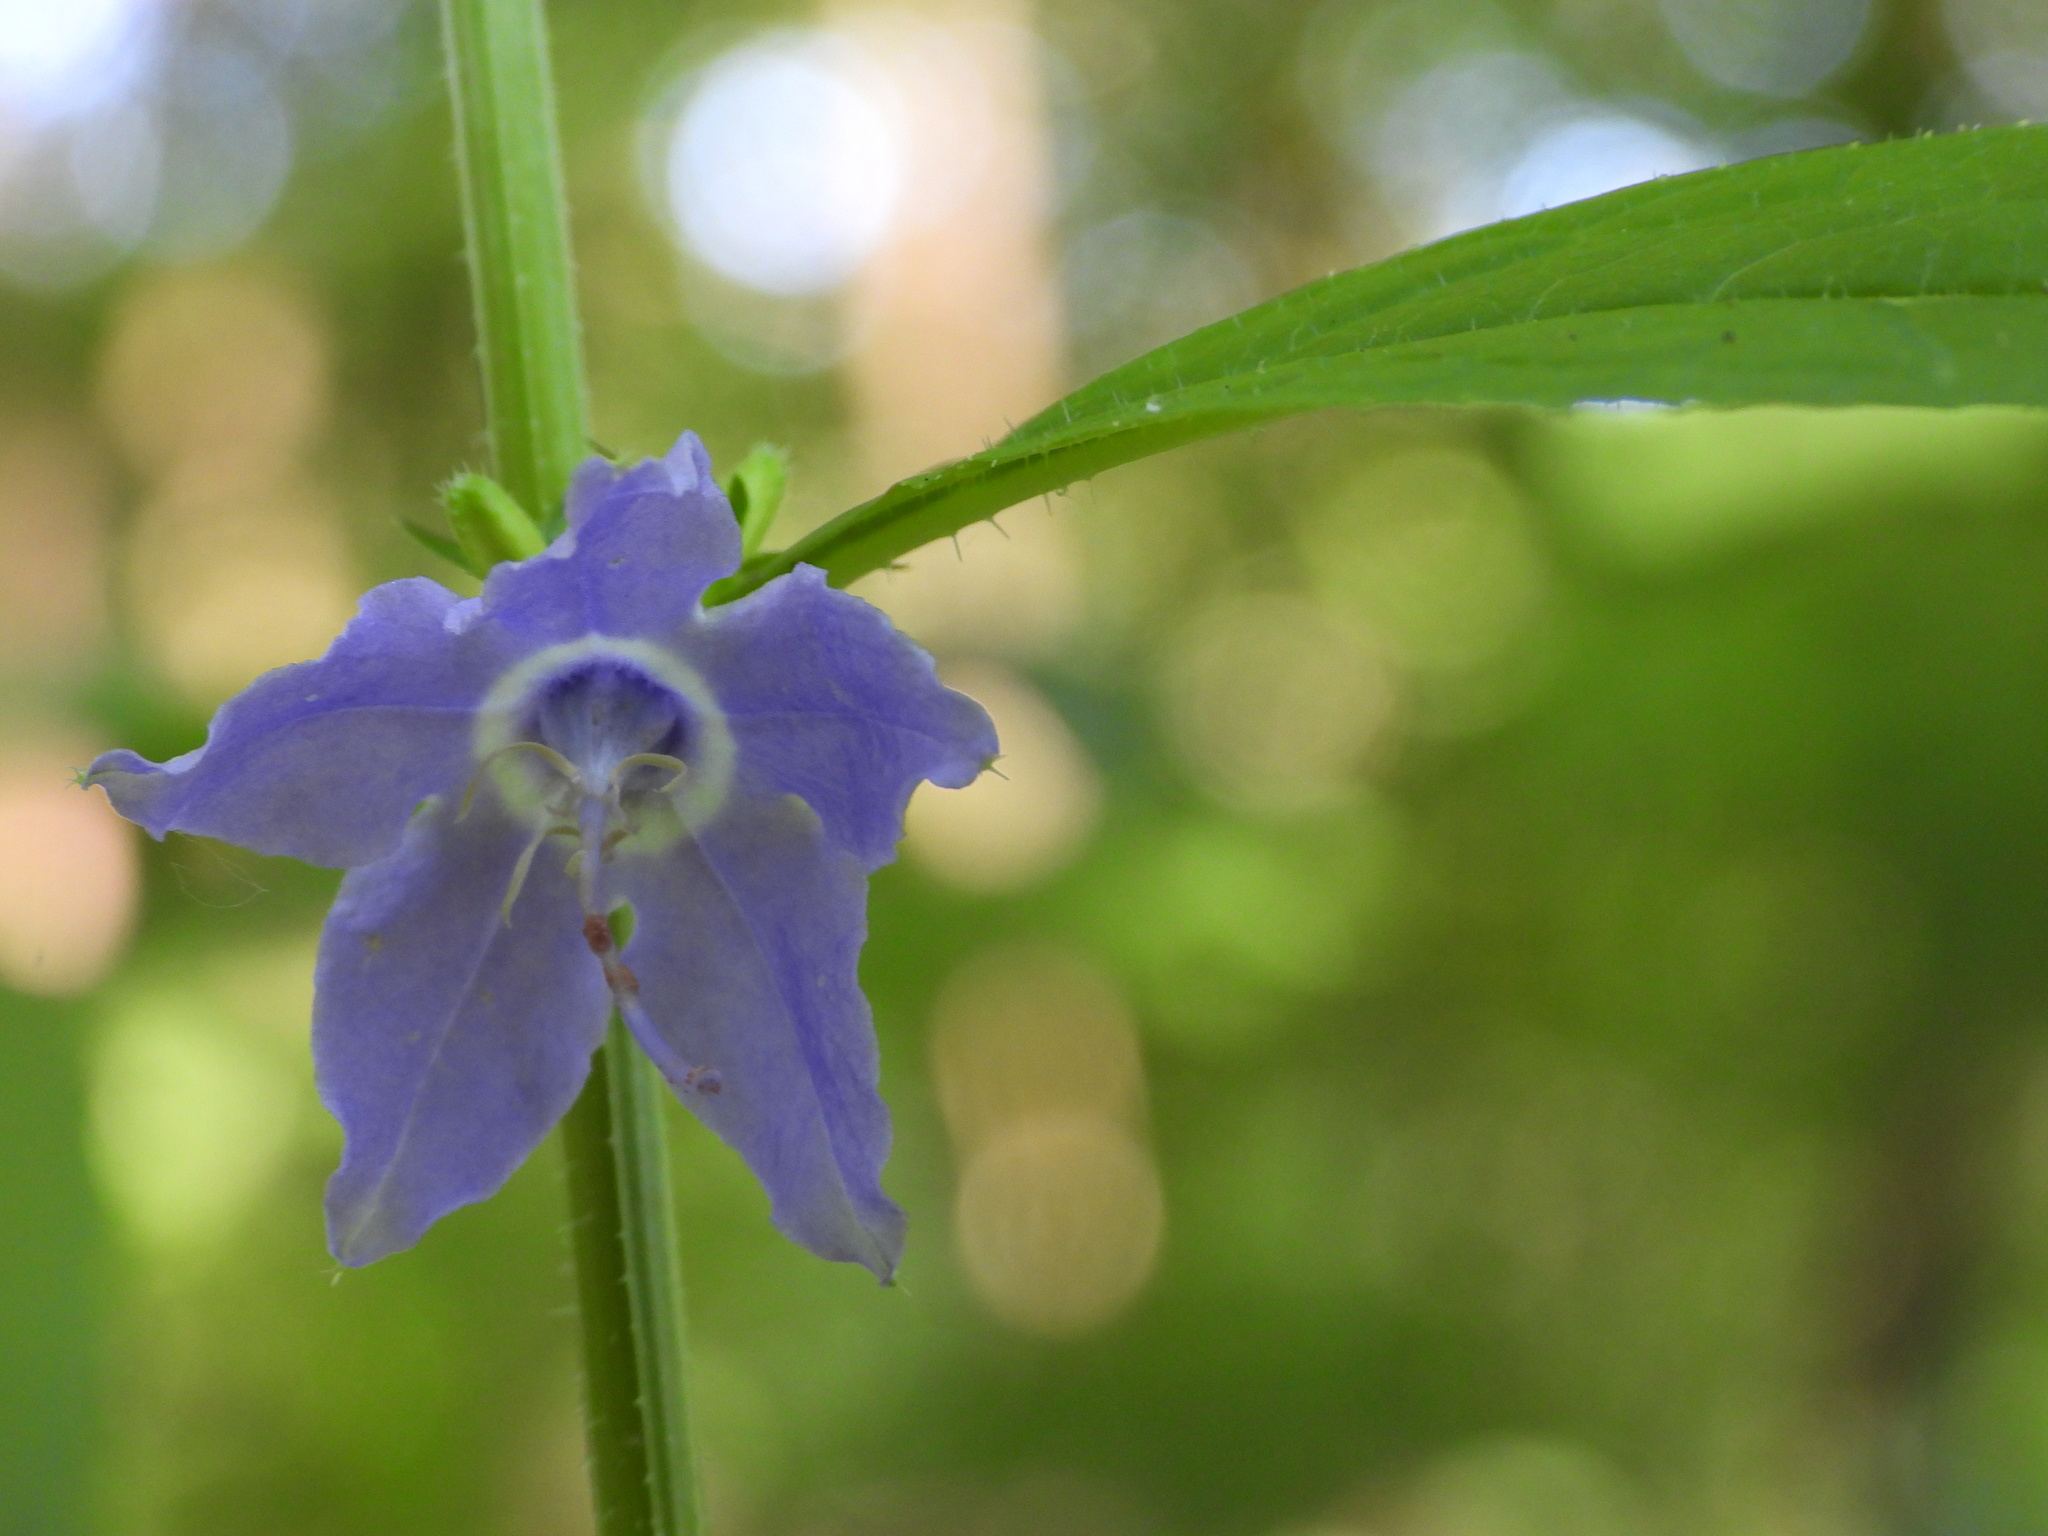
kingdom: Plantae
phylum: Tracheophyta
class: Magnoliopsida
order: Asterales
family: Campanulaceae
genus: Campanulastrum
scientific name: Campanulastrum americanum
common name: American bellflower
